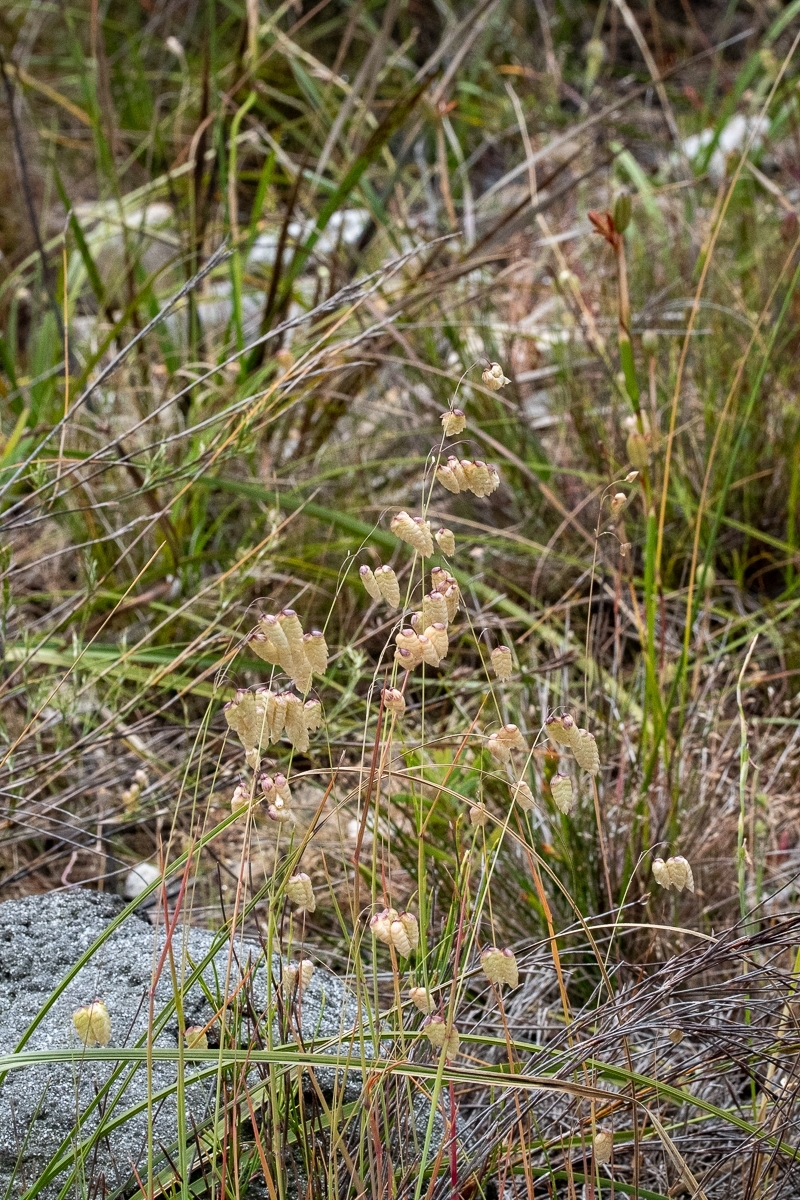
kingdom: Plantae
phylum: Tracheophyta
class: Liliopsida
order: Poales
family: Poaceae
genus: Briza
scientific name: Briza maxima
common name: Big quakinggrass
